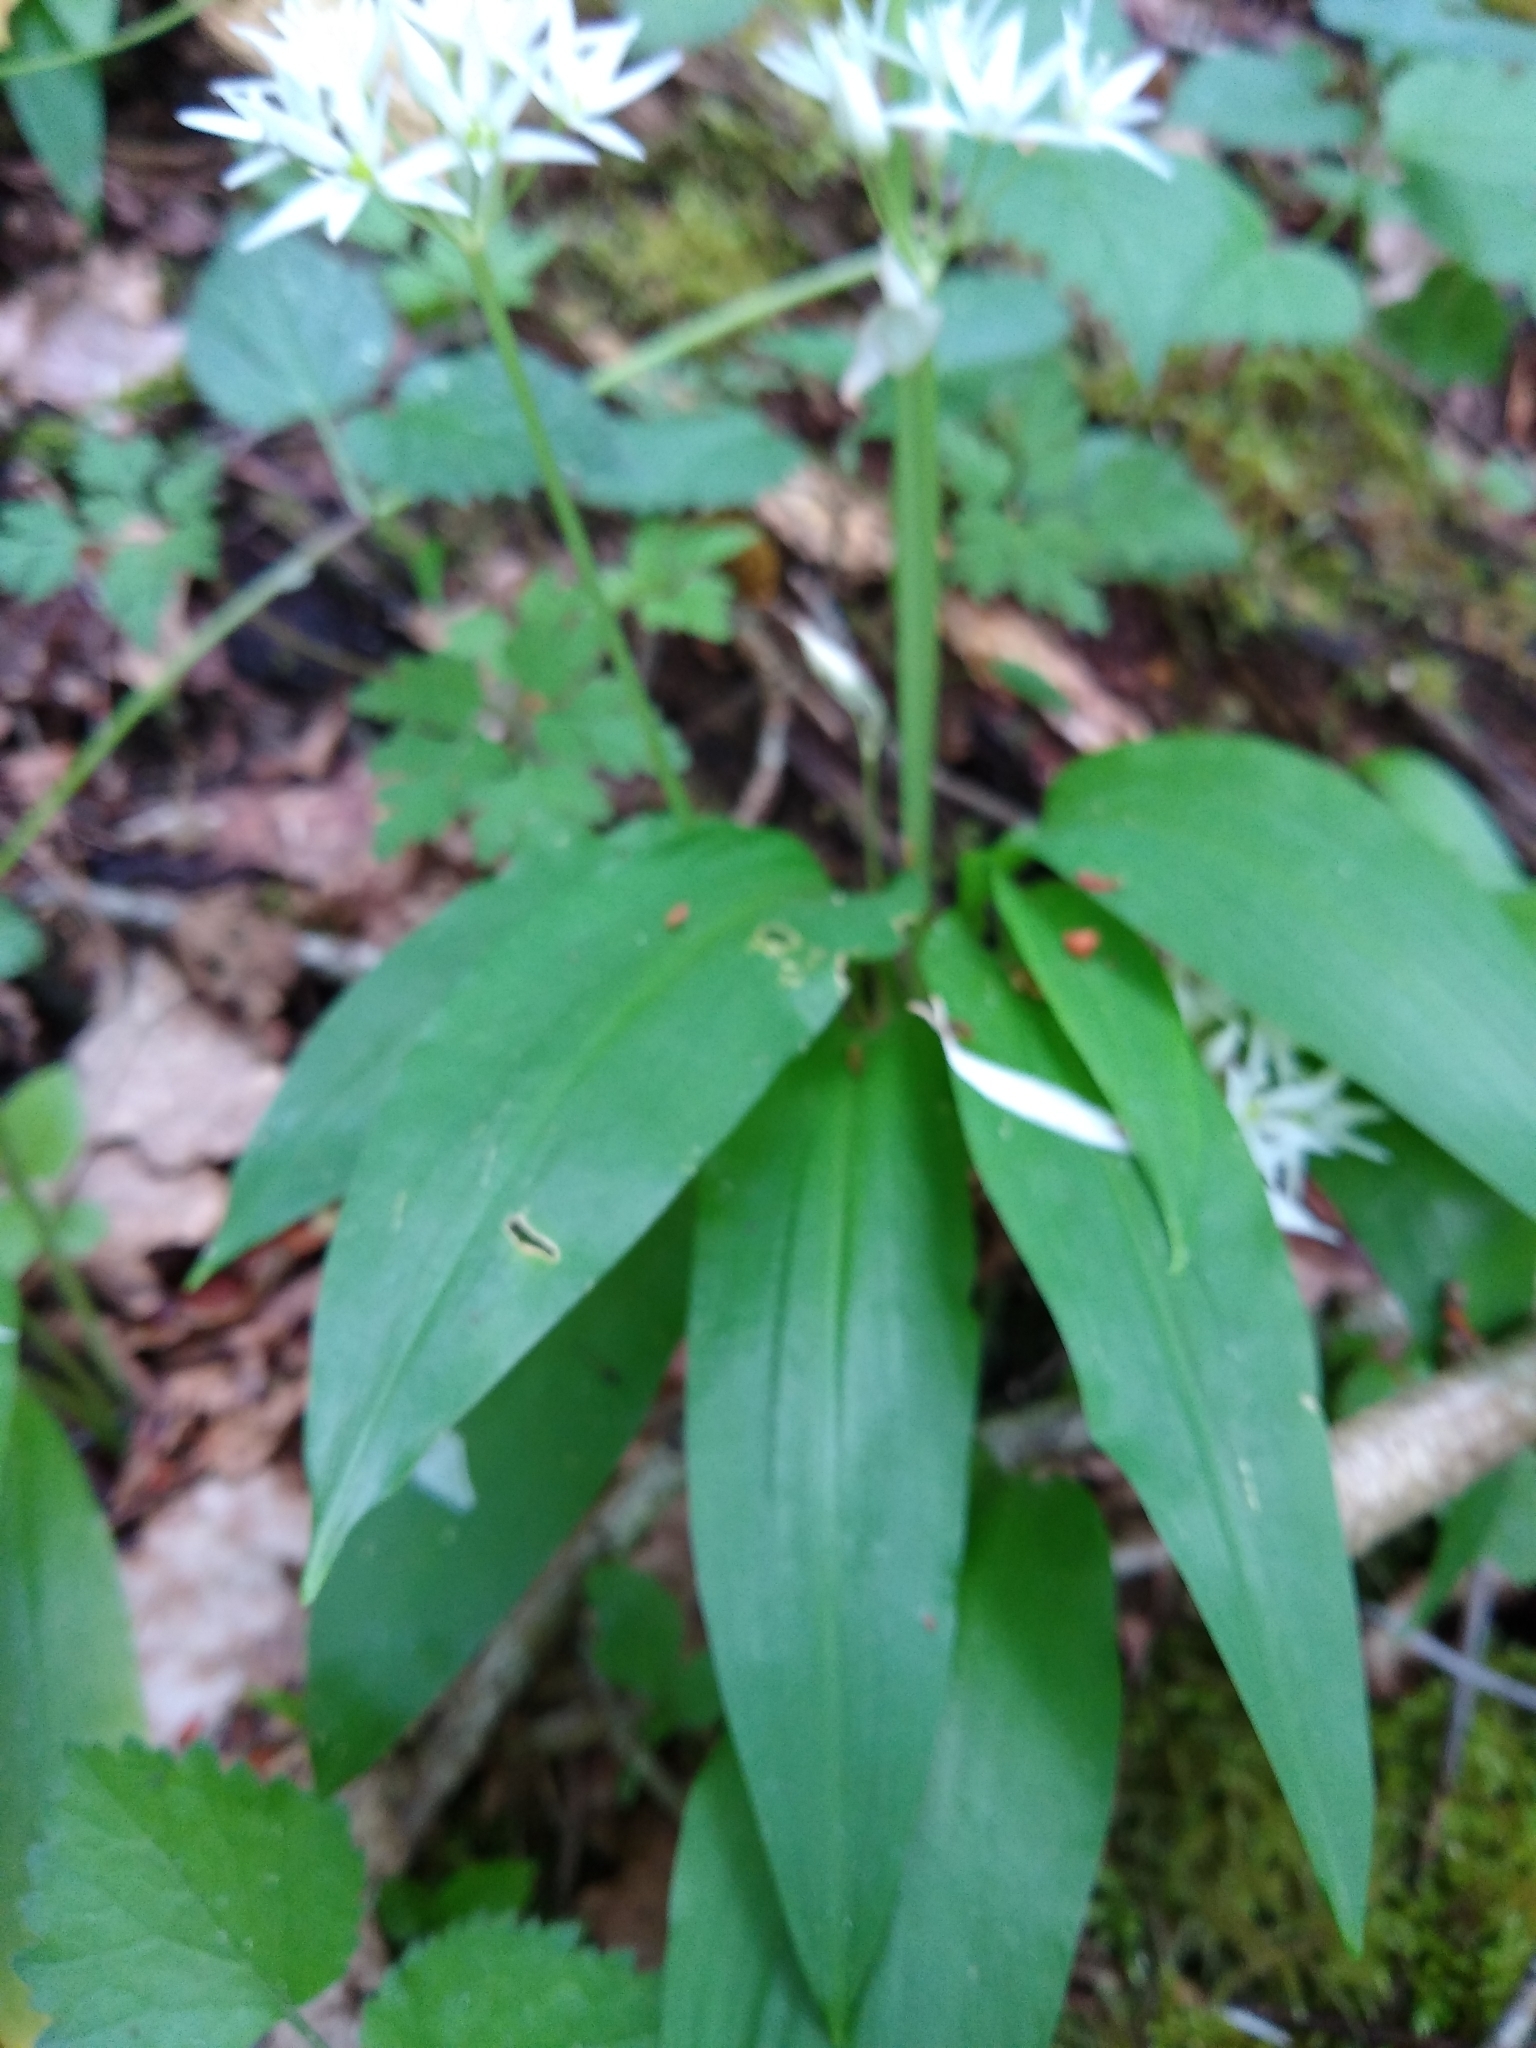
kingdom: Plantae
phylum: Tracheophyta
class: Liliopsida
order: Asparagales
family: Amaryllidaceae
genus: Allium
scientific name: Allium ursinum
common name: Ramsons
